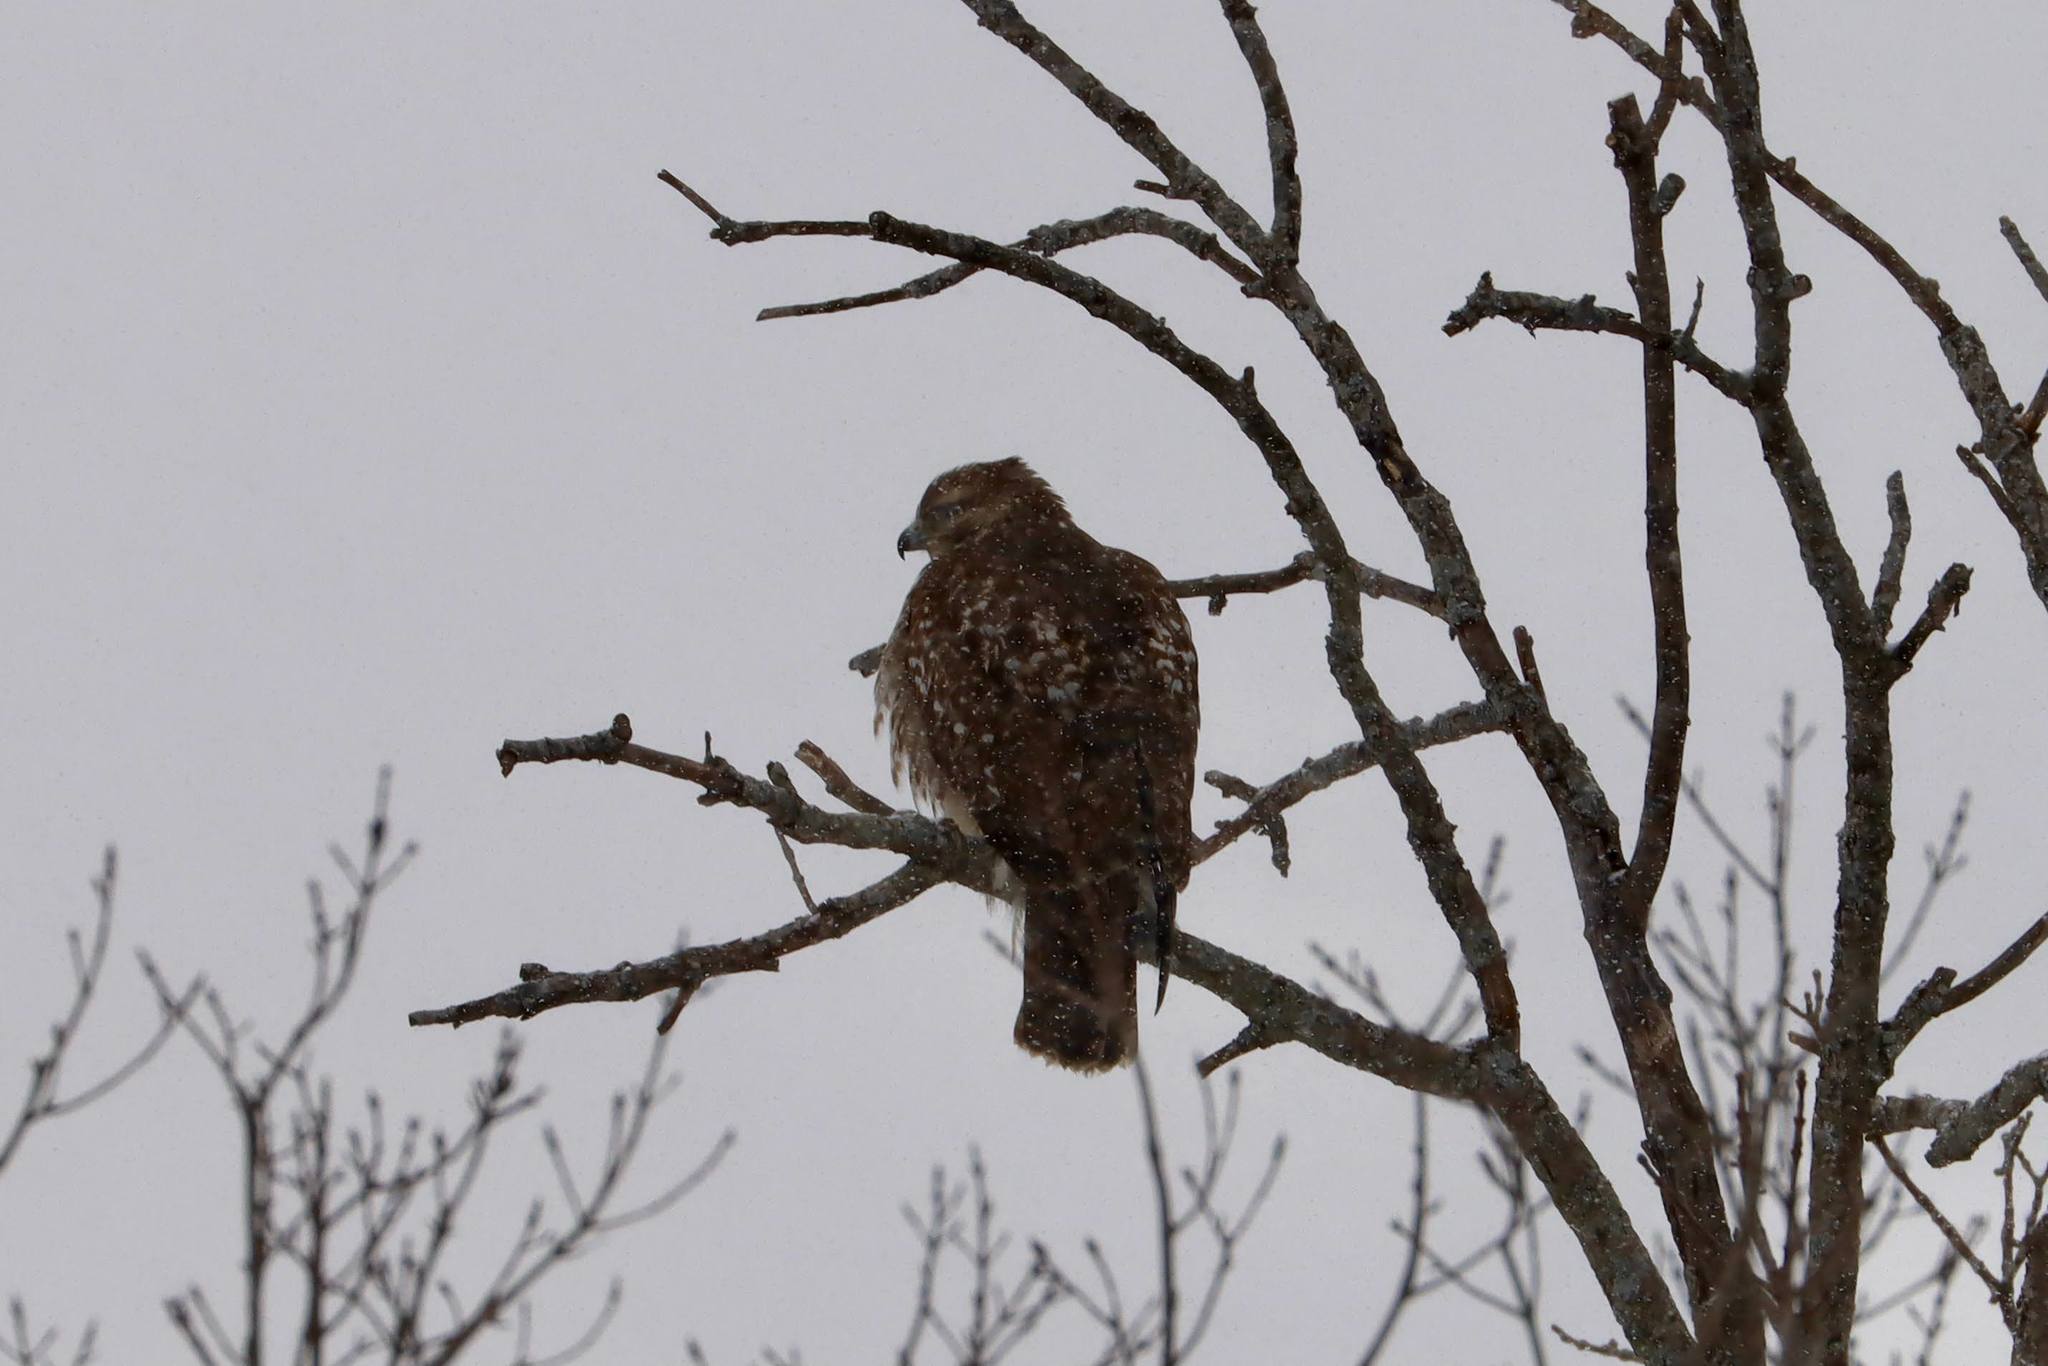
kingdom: Animalia
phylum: Chordata
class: Aves
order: Accipitriformes
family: Accipitridae
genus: Buteo
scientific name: Buteo jamaicensis
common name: Red-tailed hawk
